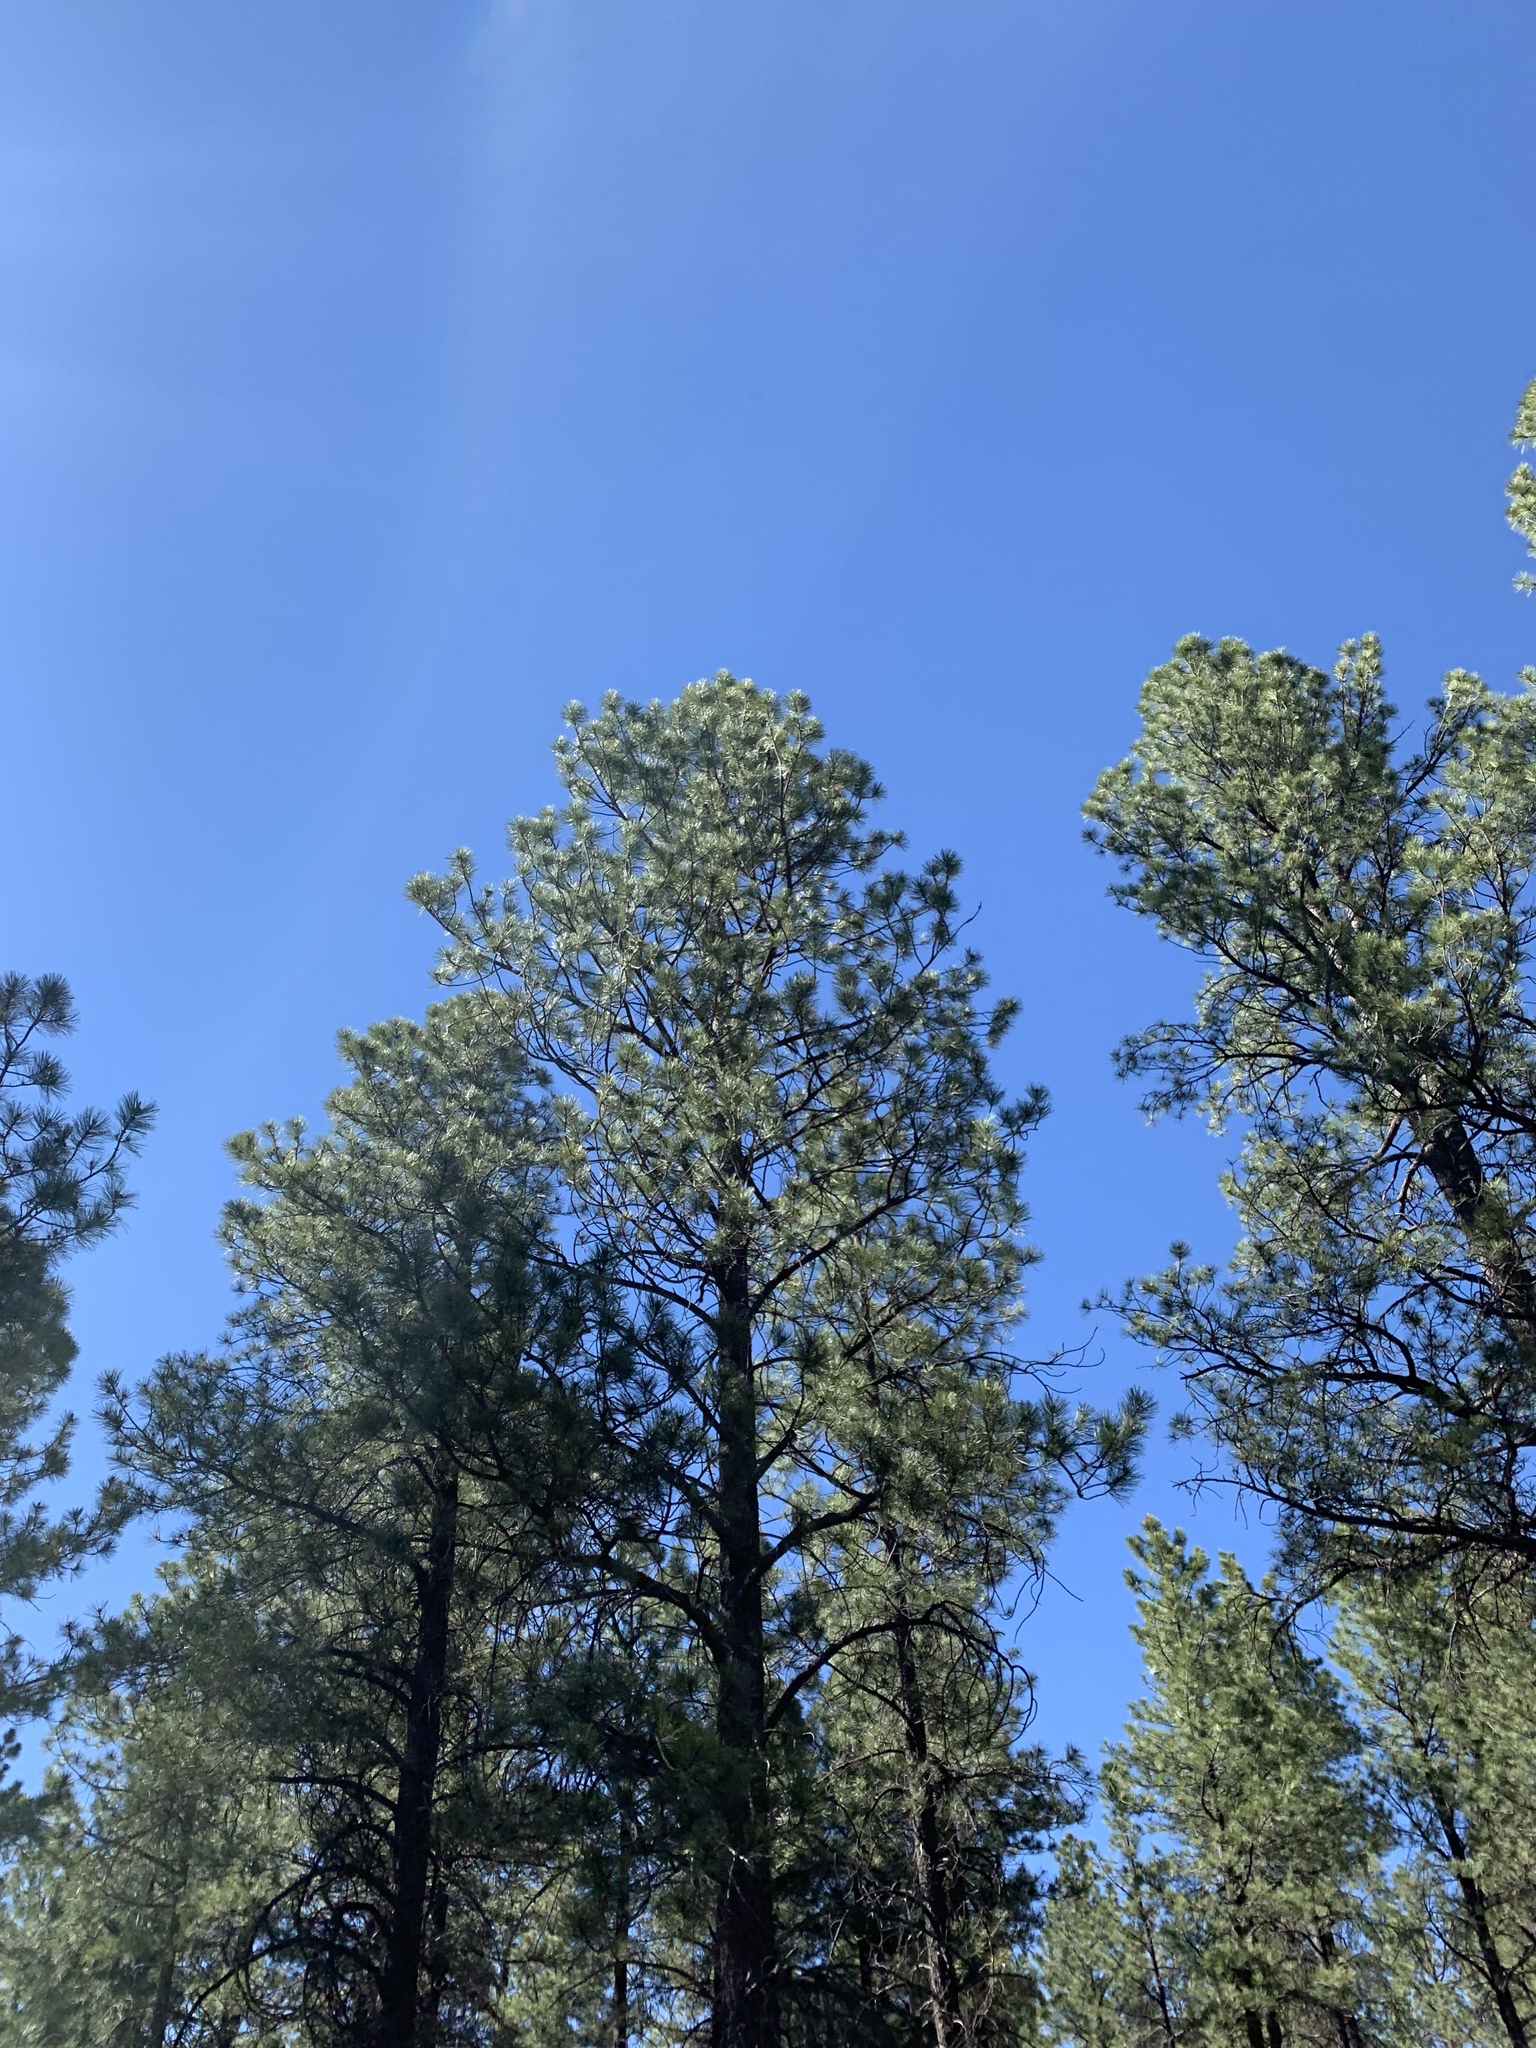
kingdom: Plantae
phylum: Tracheophyta
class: Pinopsida
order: Pinales
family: Pinaceae
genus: Pinus
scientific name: Pinus ponderosa
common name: Western yellow-pine
